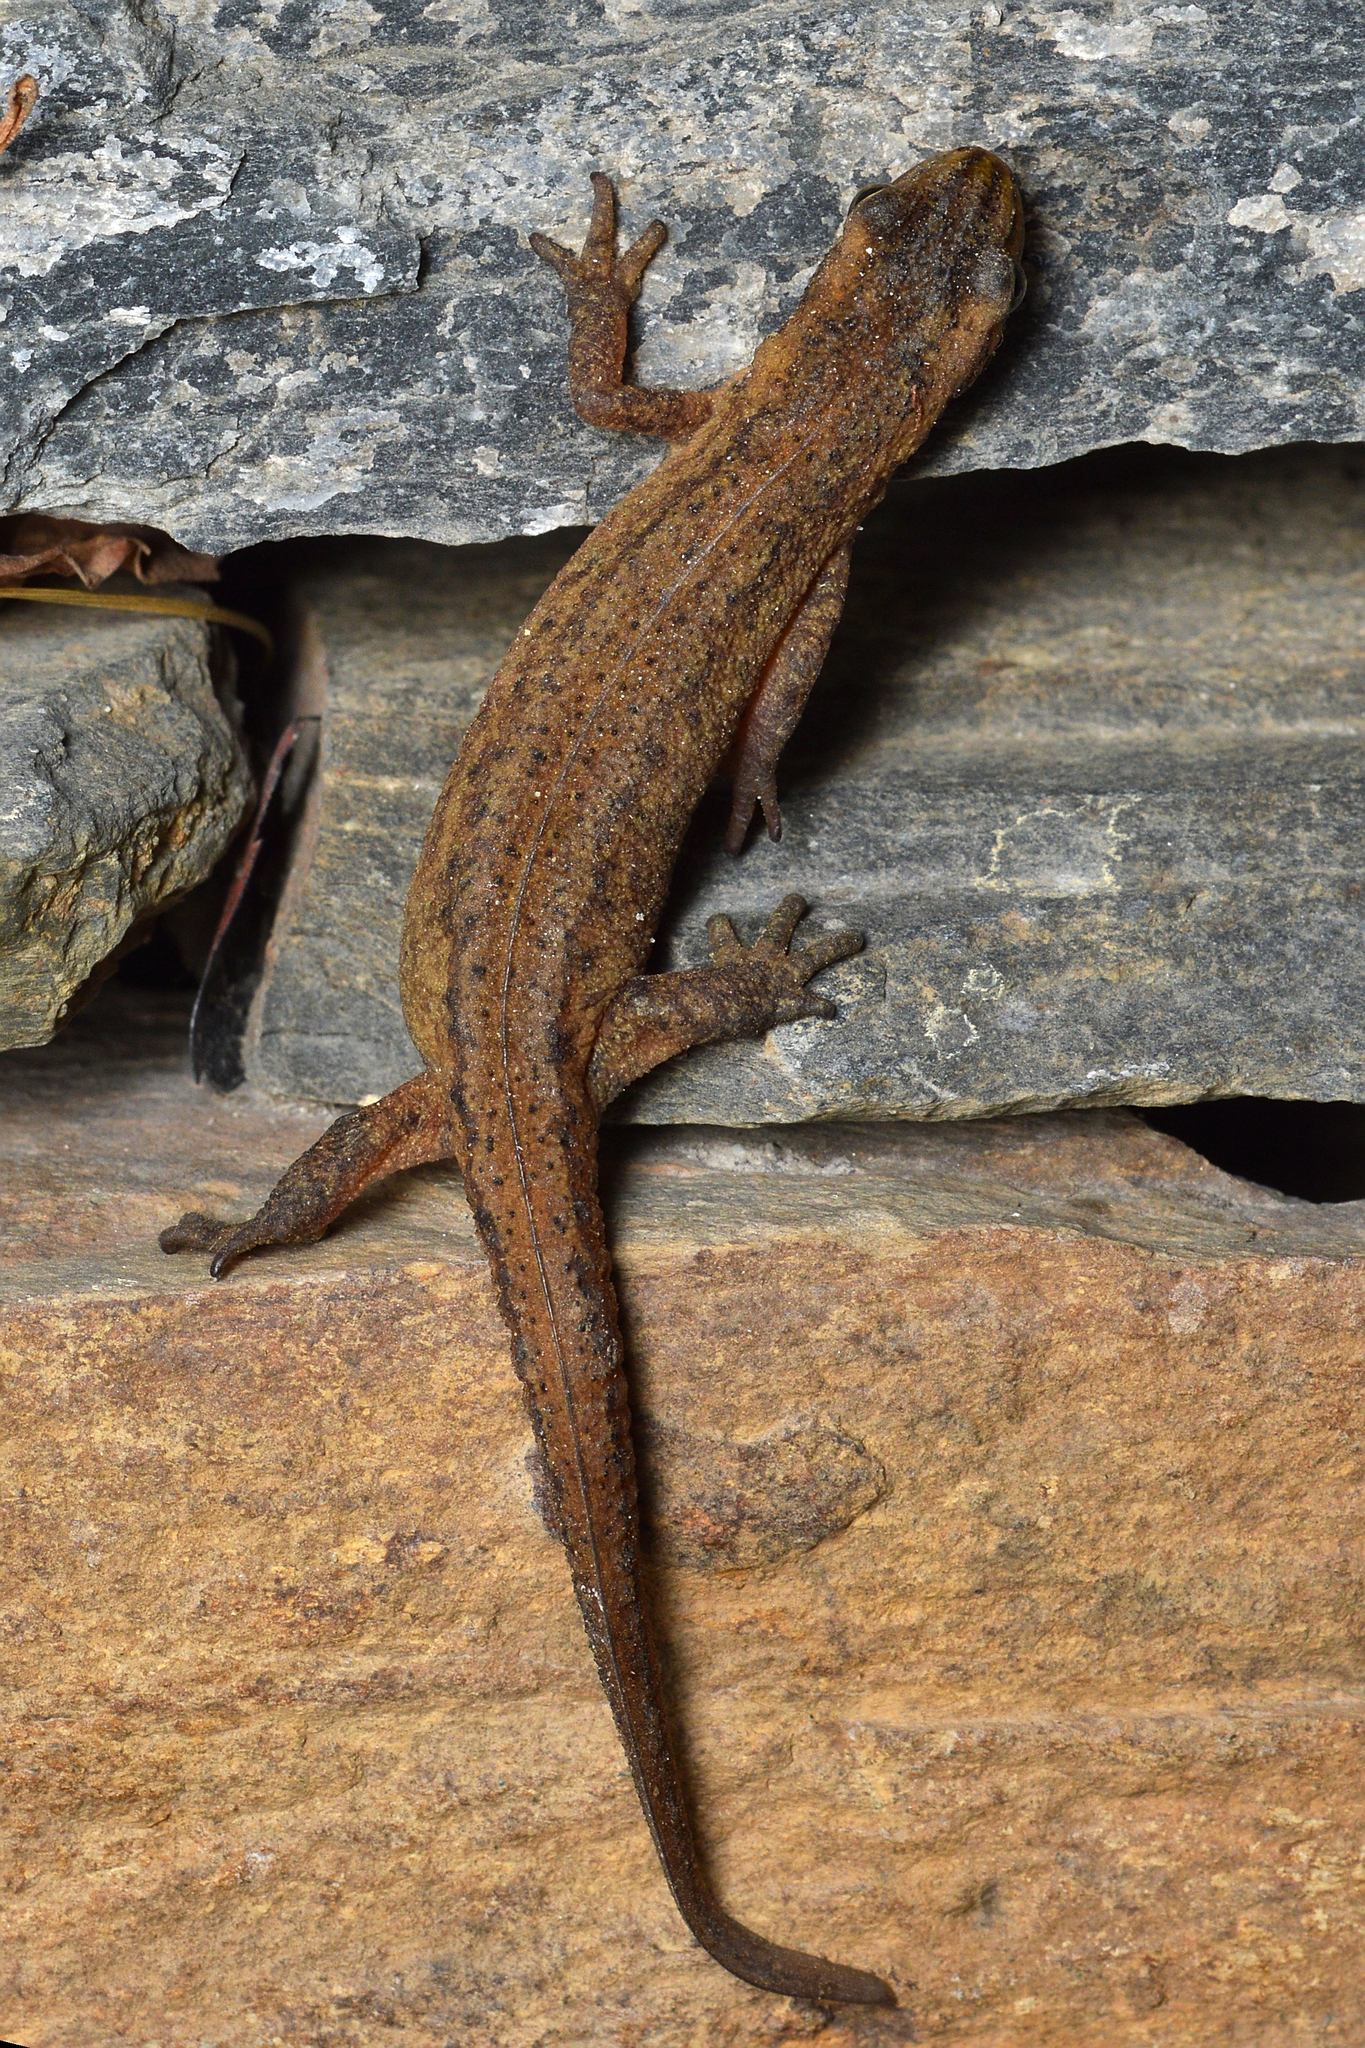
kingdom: Animalia
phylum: Chordata
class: Amphibia
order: Caudata
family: Salamandridae
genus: Lissotriton
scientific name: Lissotriton vulgaris
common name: Smooth newt
